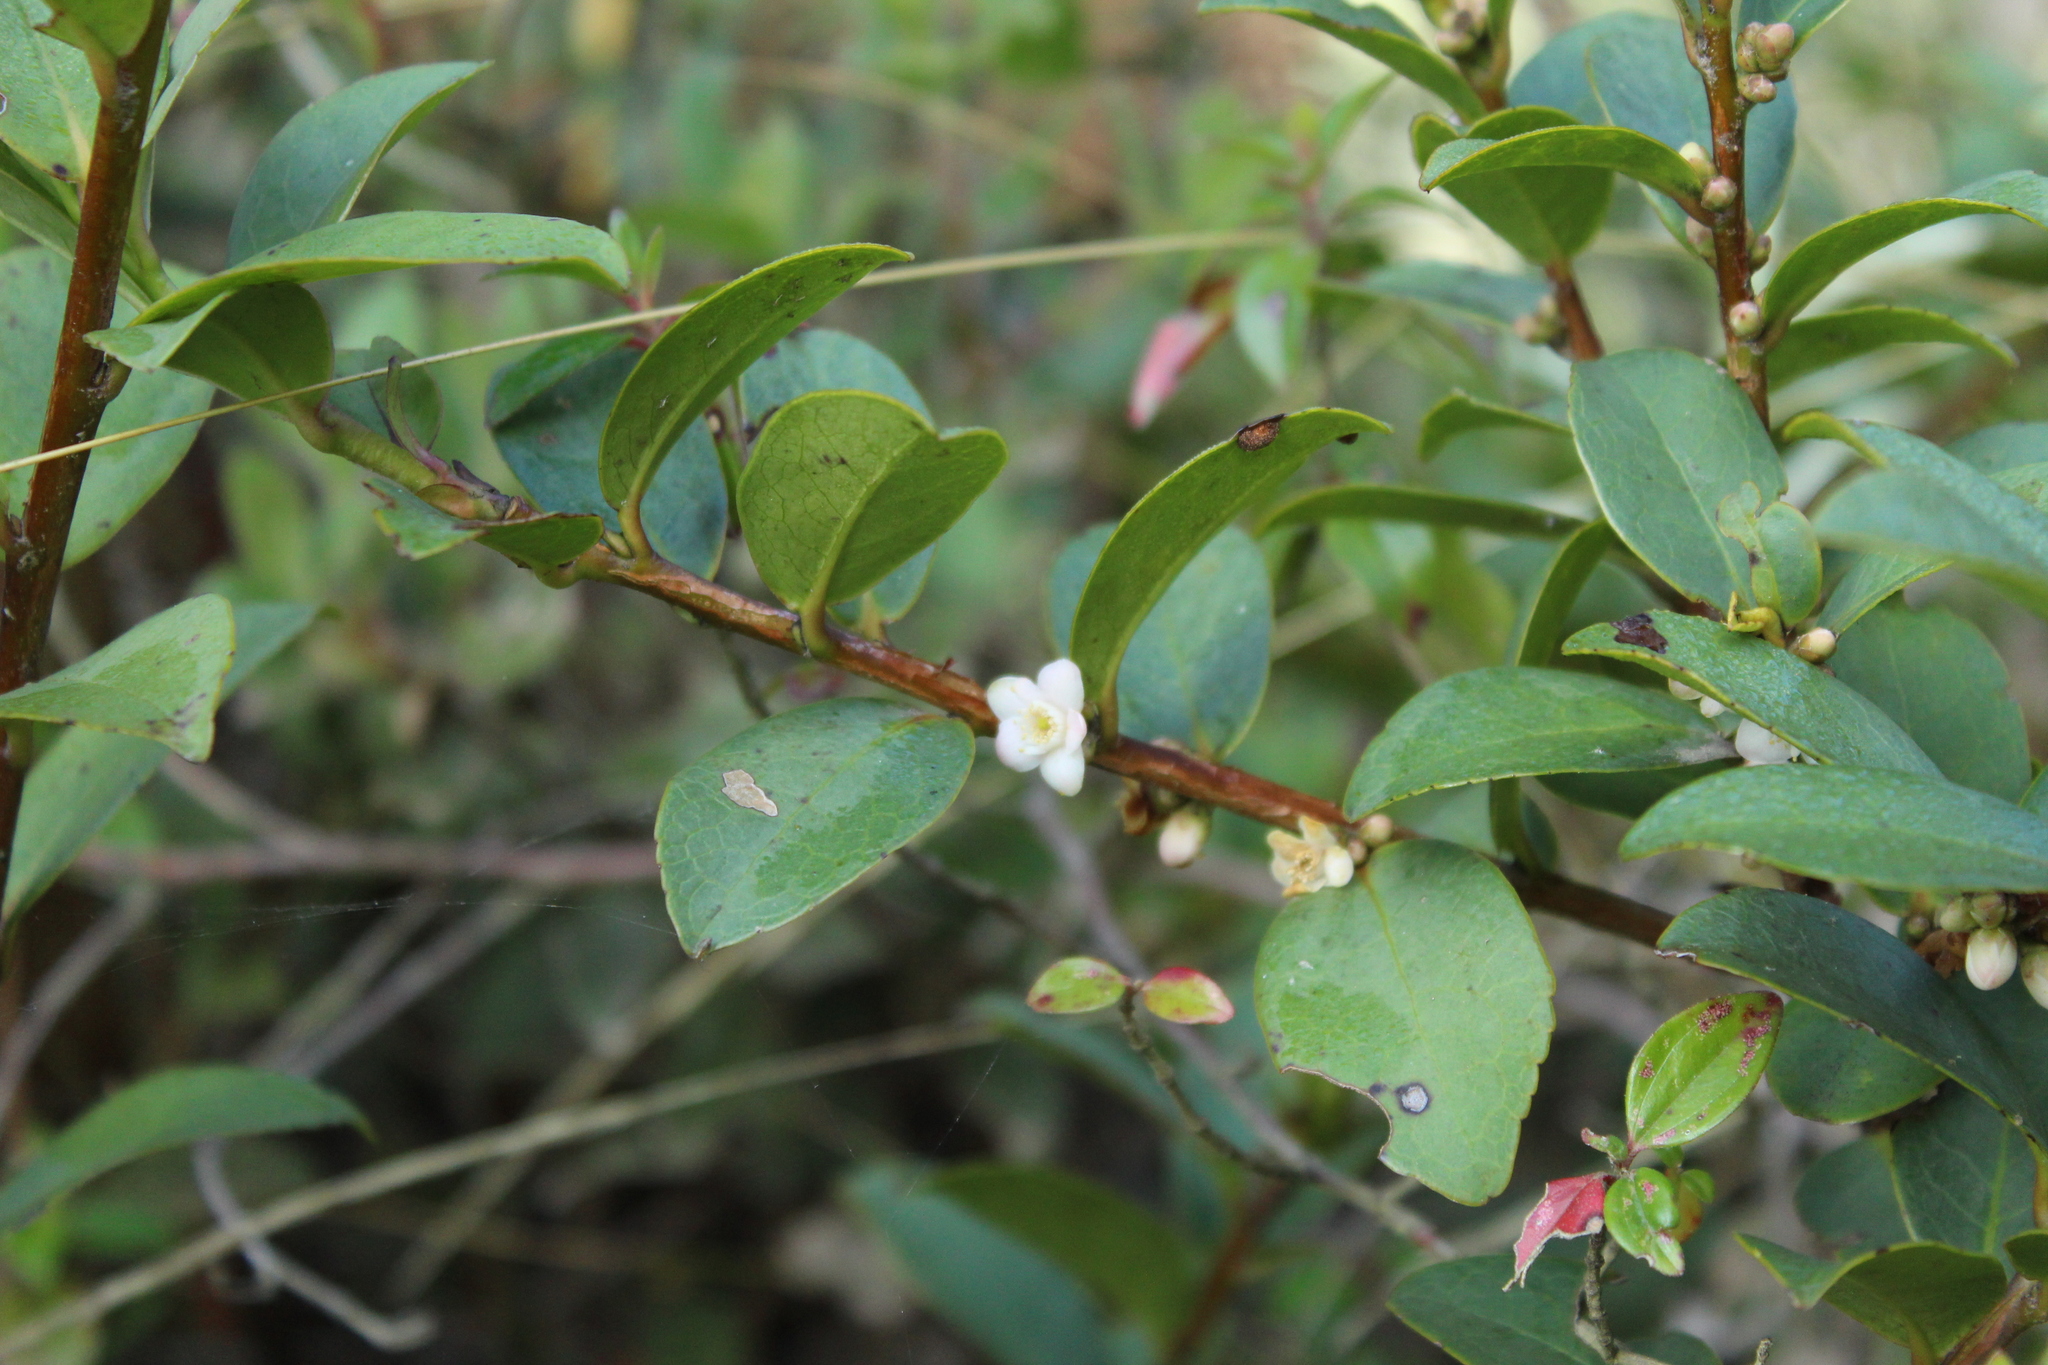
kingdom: Plantae
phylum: Tracheophyta
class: Magnoliopsida
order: Ericales
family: Symplocaceae
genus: Symplocos
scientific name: Symplocos theiformis
